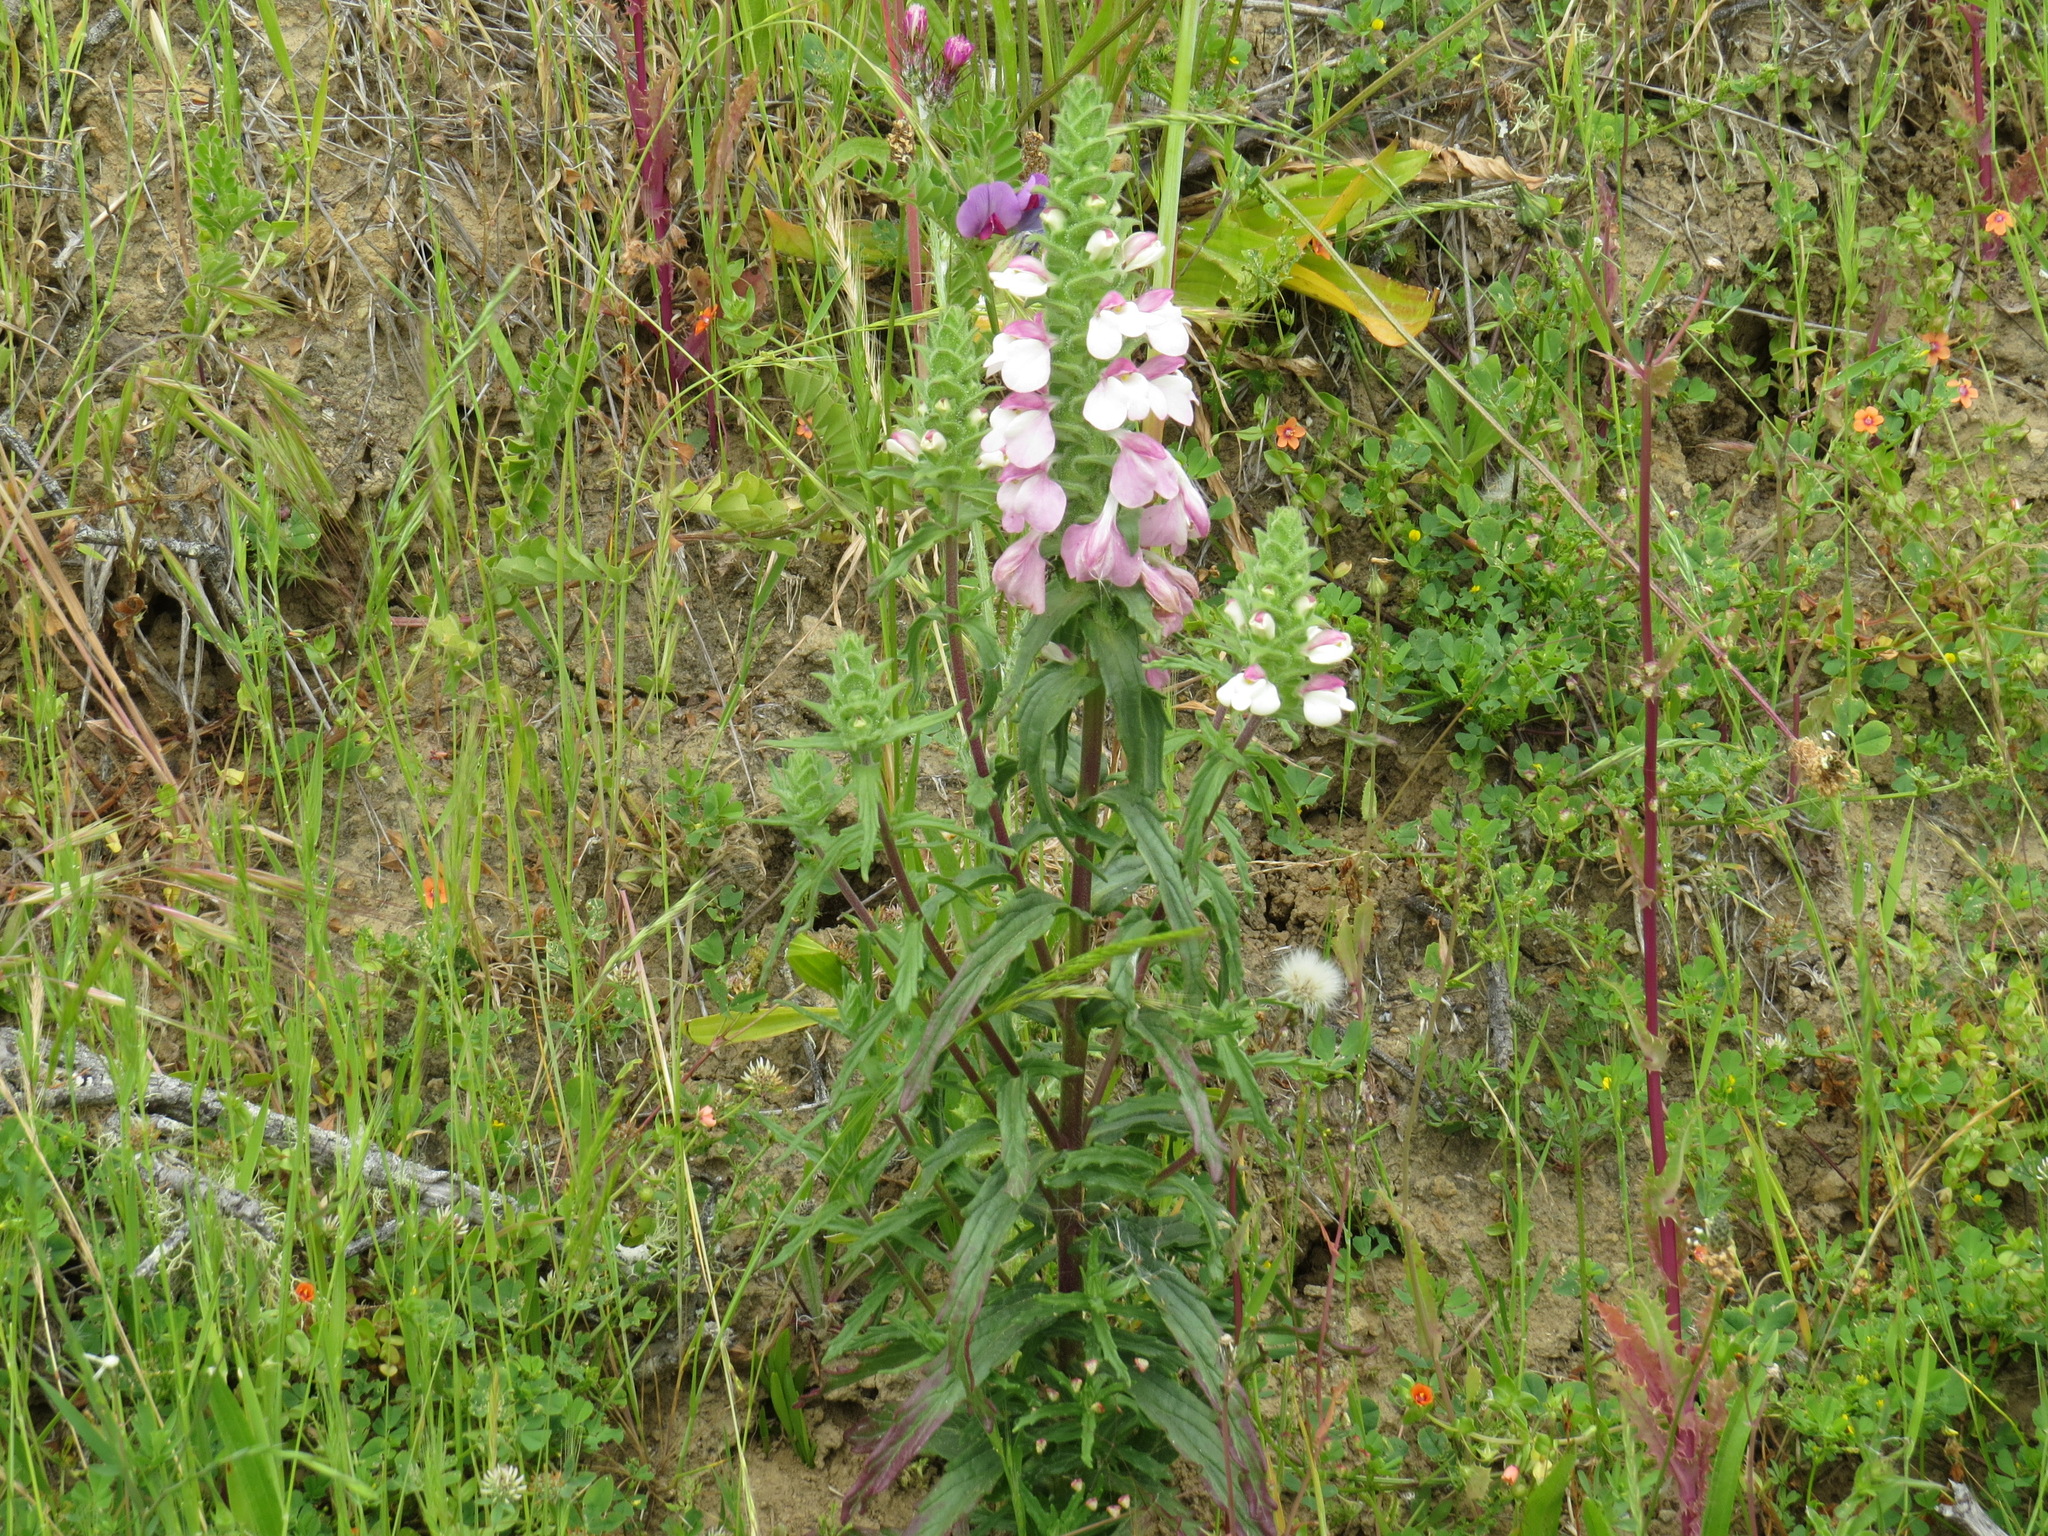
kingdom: Plantae
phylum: Tracheophyta
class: Magnoliopsida
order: Lamiales
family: Orobanchaceae
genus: Bellardia
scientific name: Bellardia trixago
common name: Mediterranean lineseed
